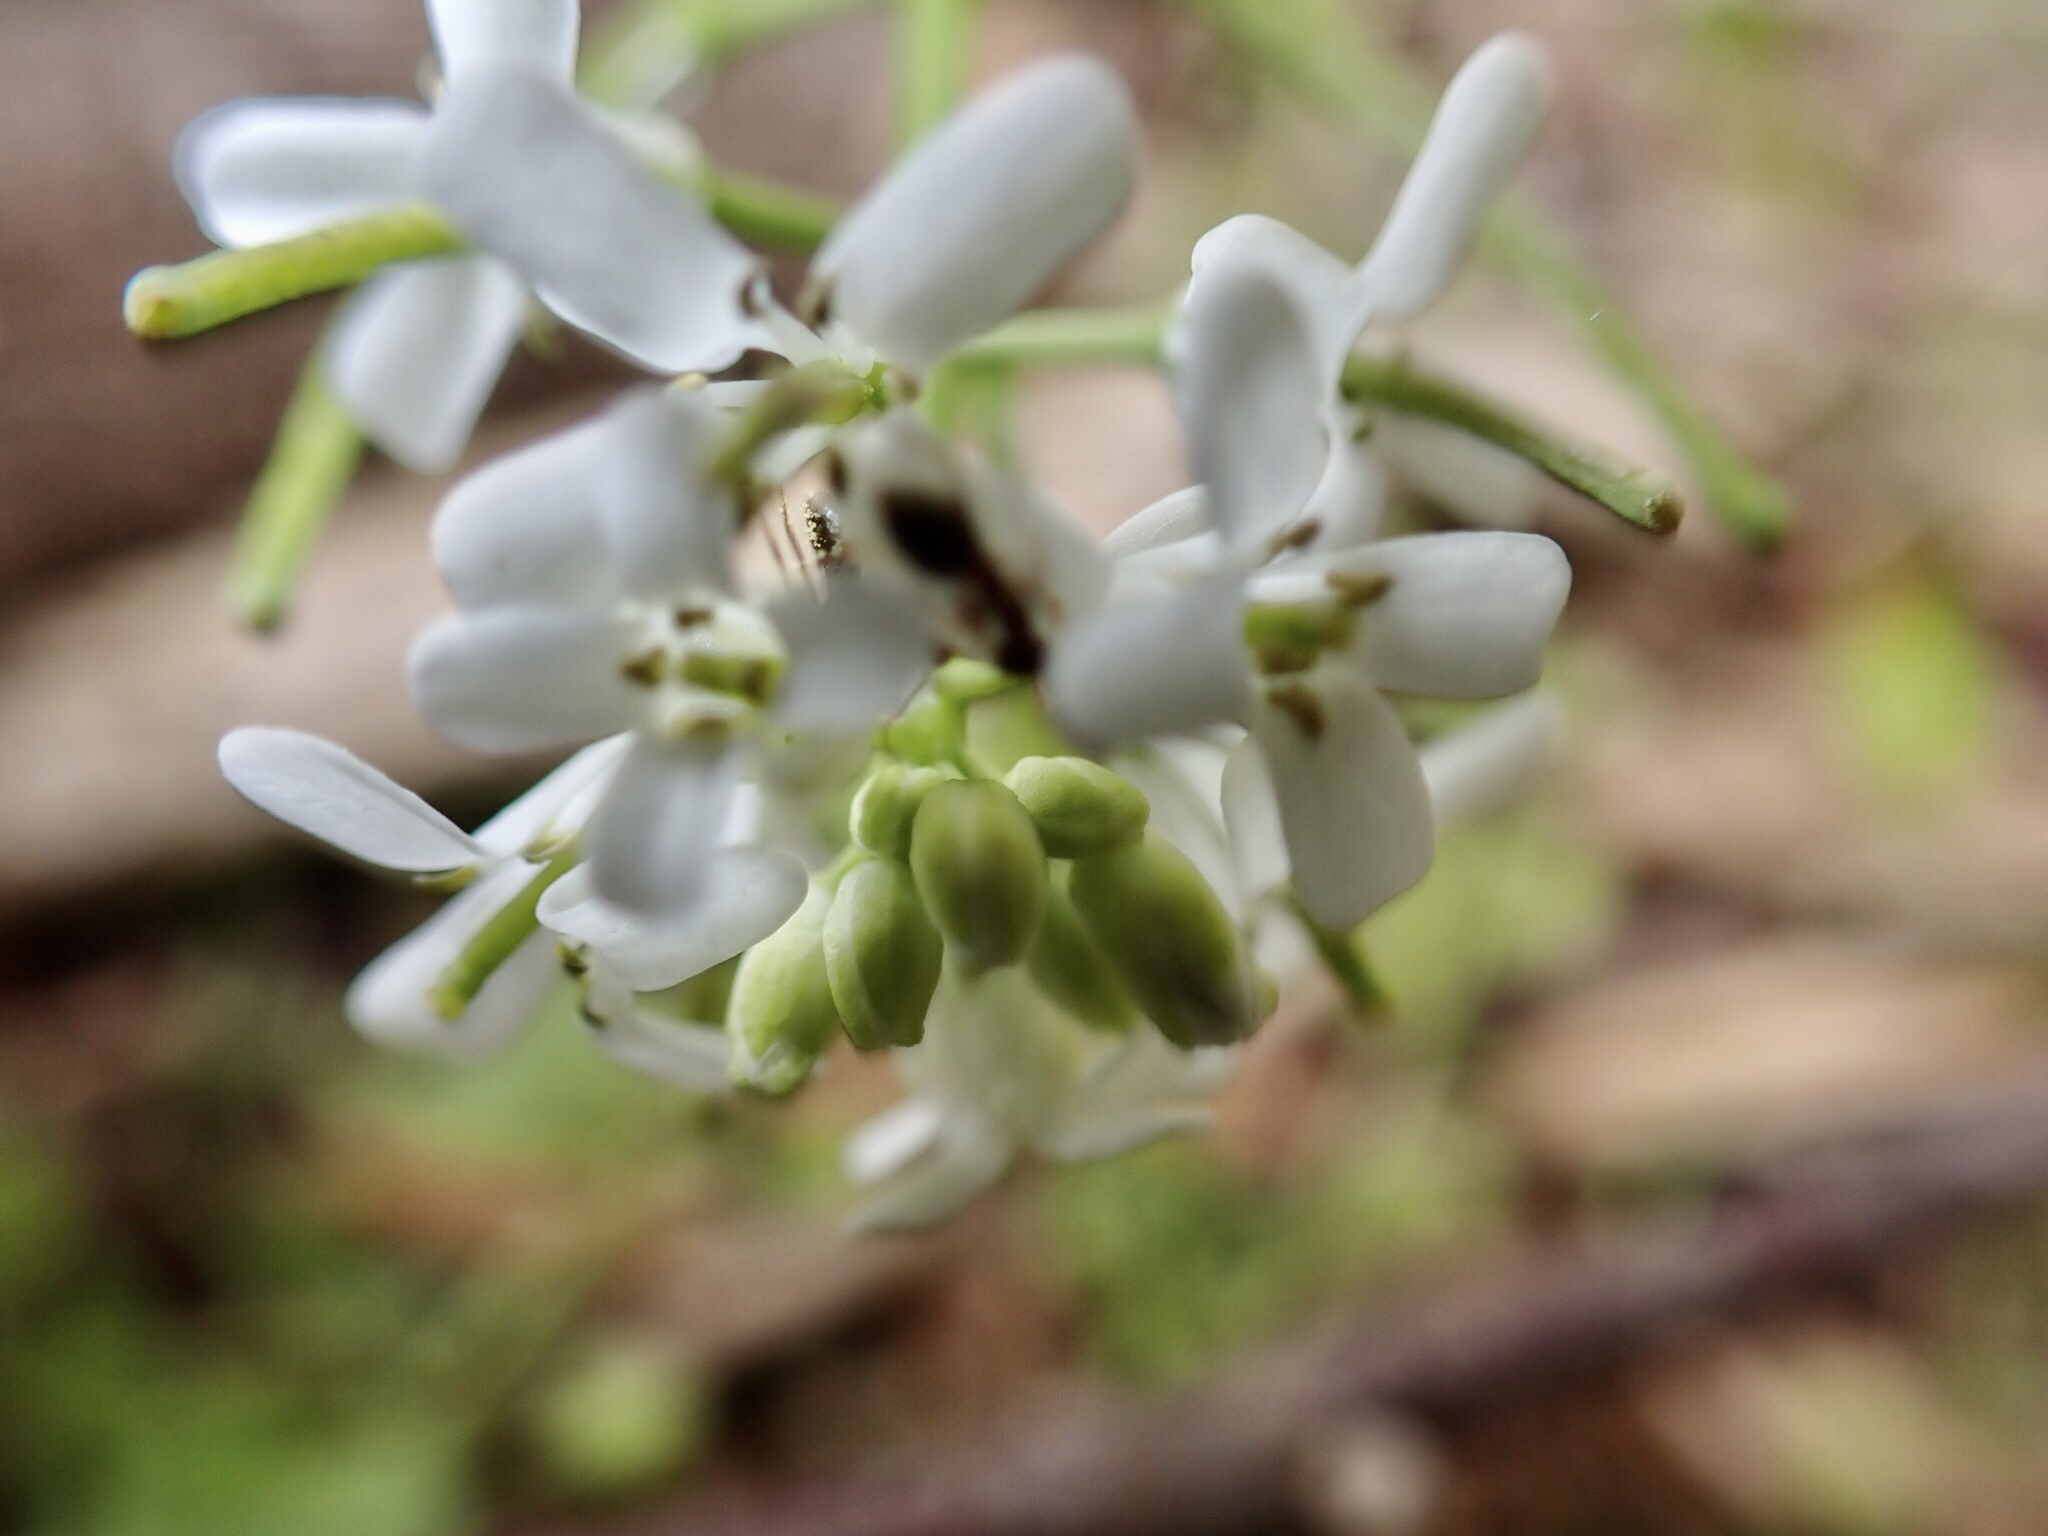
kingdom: Plantae
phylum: Tracheophyta
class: Magnoliopsida
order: Brassicales
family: Brassicaceae
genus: Cardamine
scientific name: Cardamine bulbosa
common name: Spring cress
